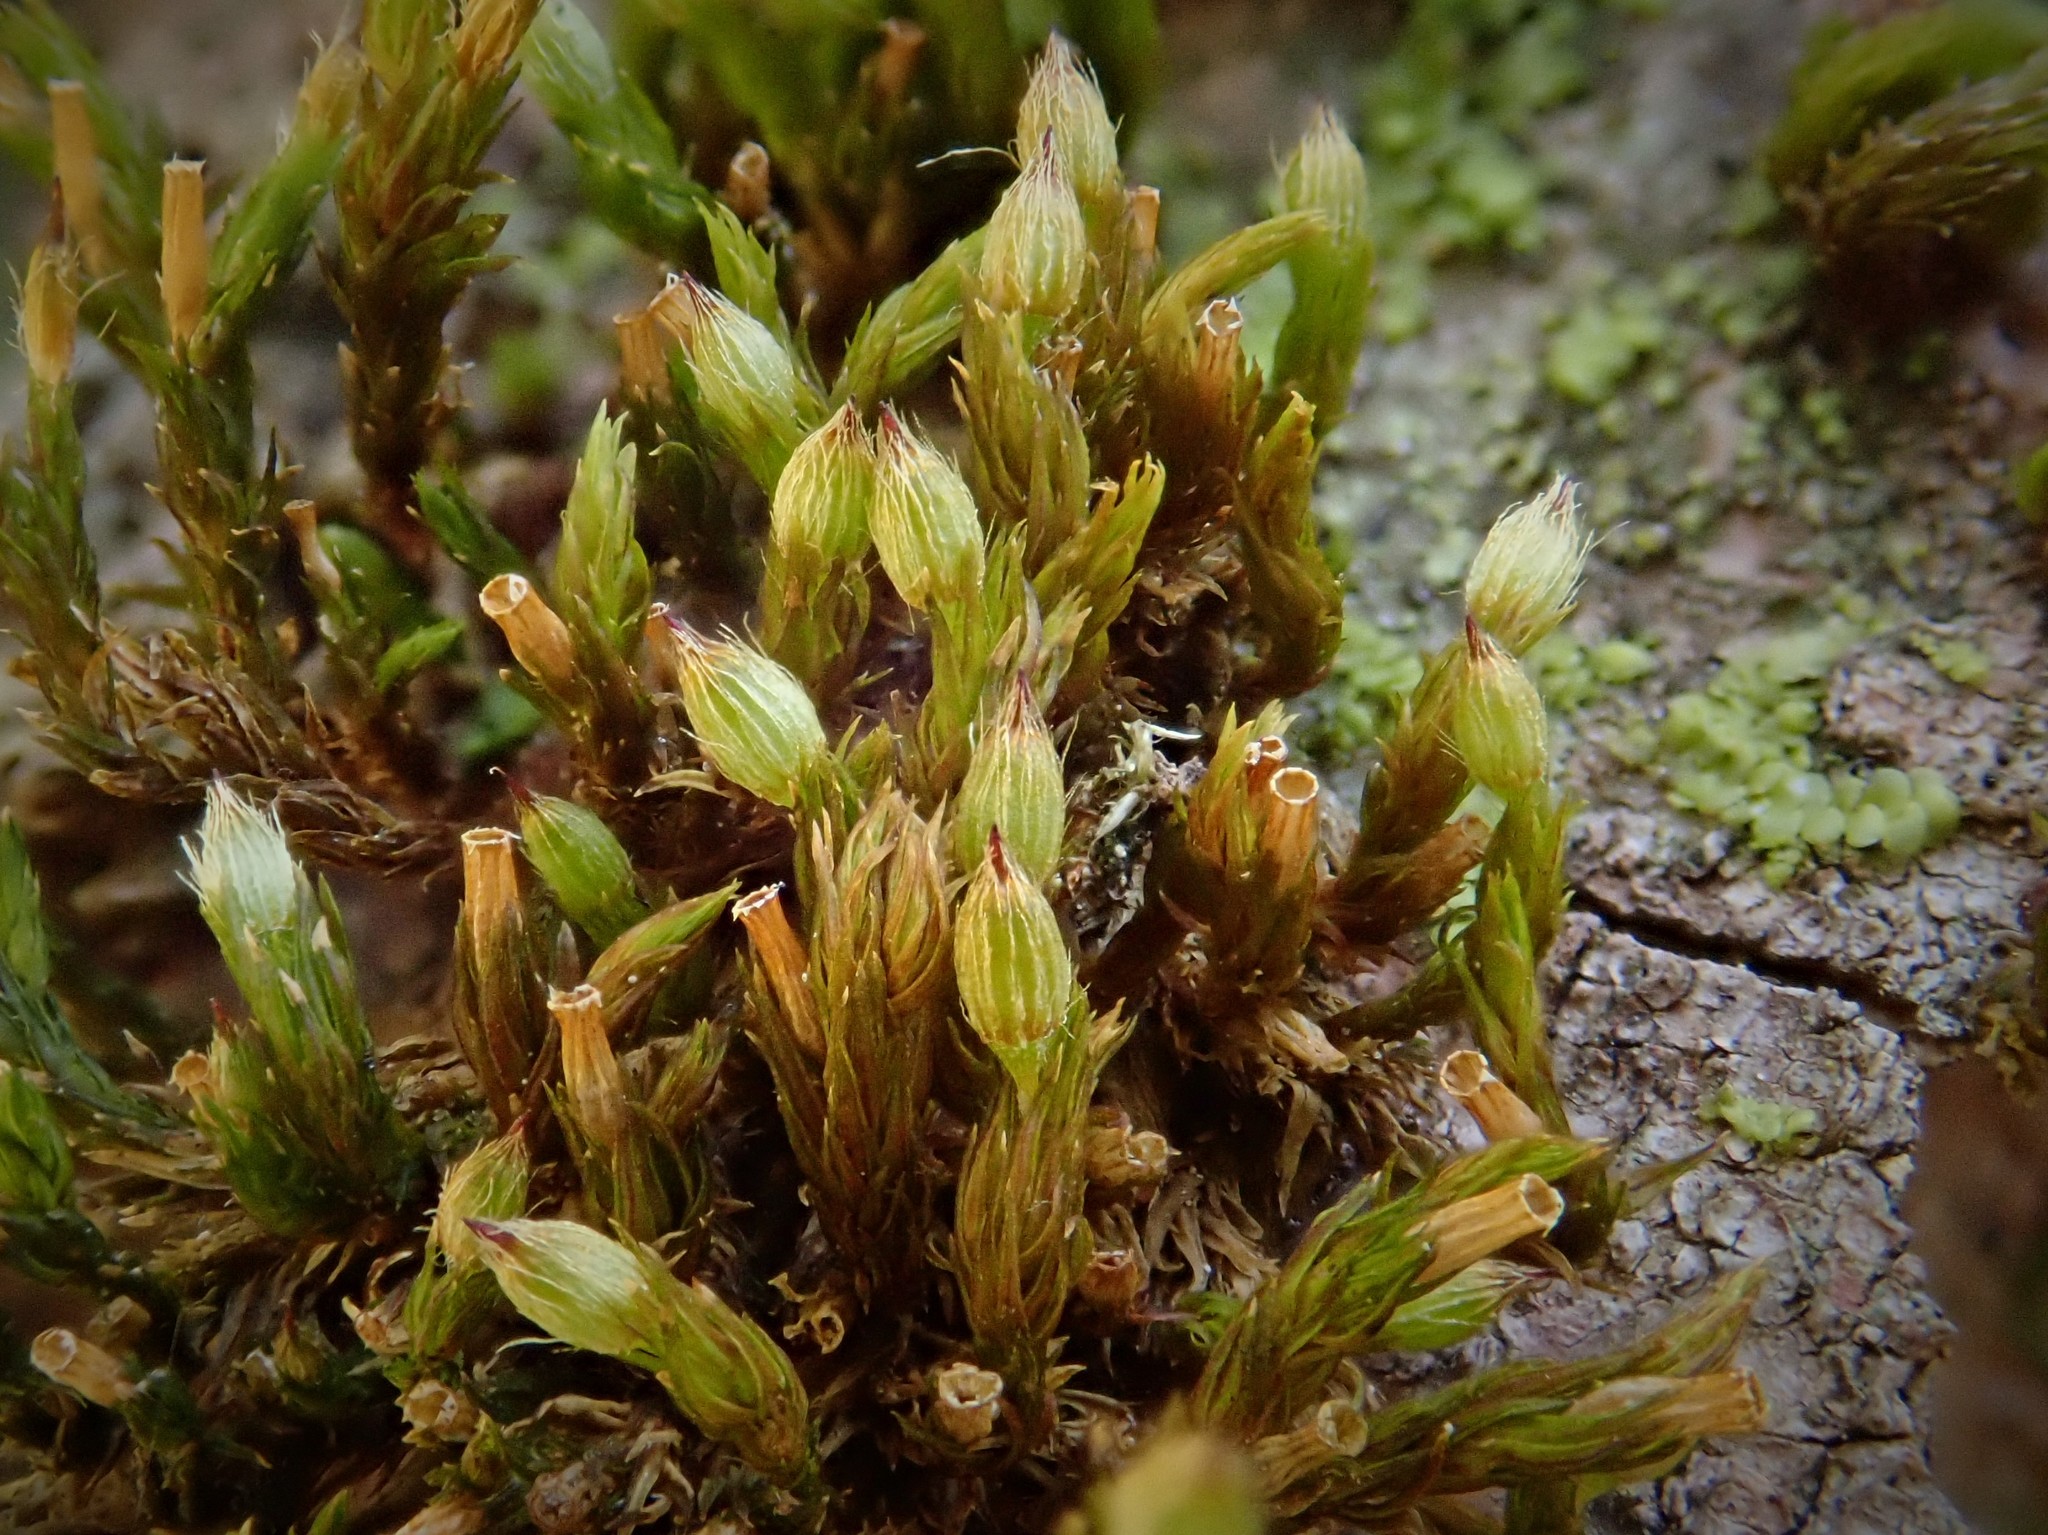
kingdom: Plantae
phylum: Bryophyta
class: Bryopsida
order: Orthotrichales
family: Orthotrichaceae
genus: Orthotrichum
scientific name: Orthotrichum patens
